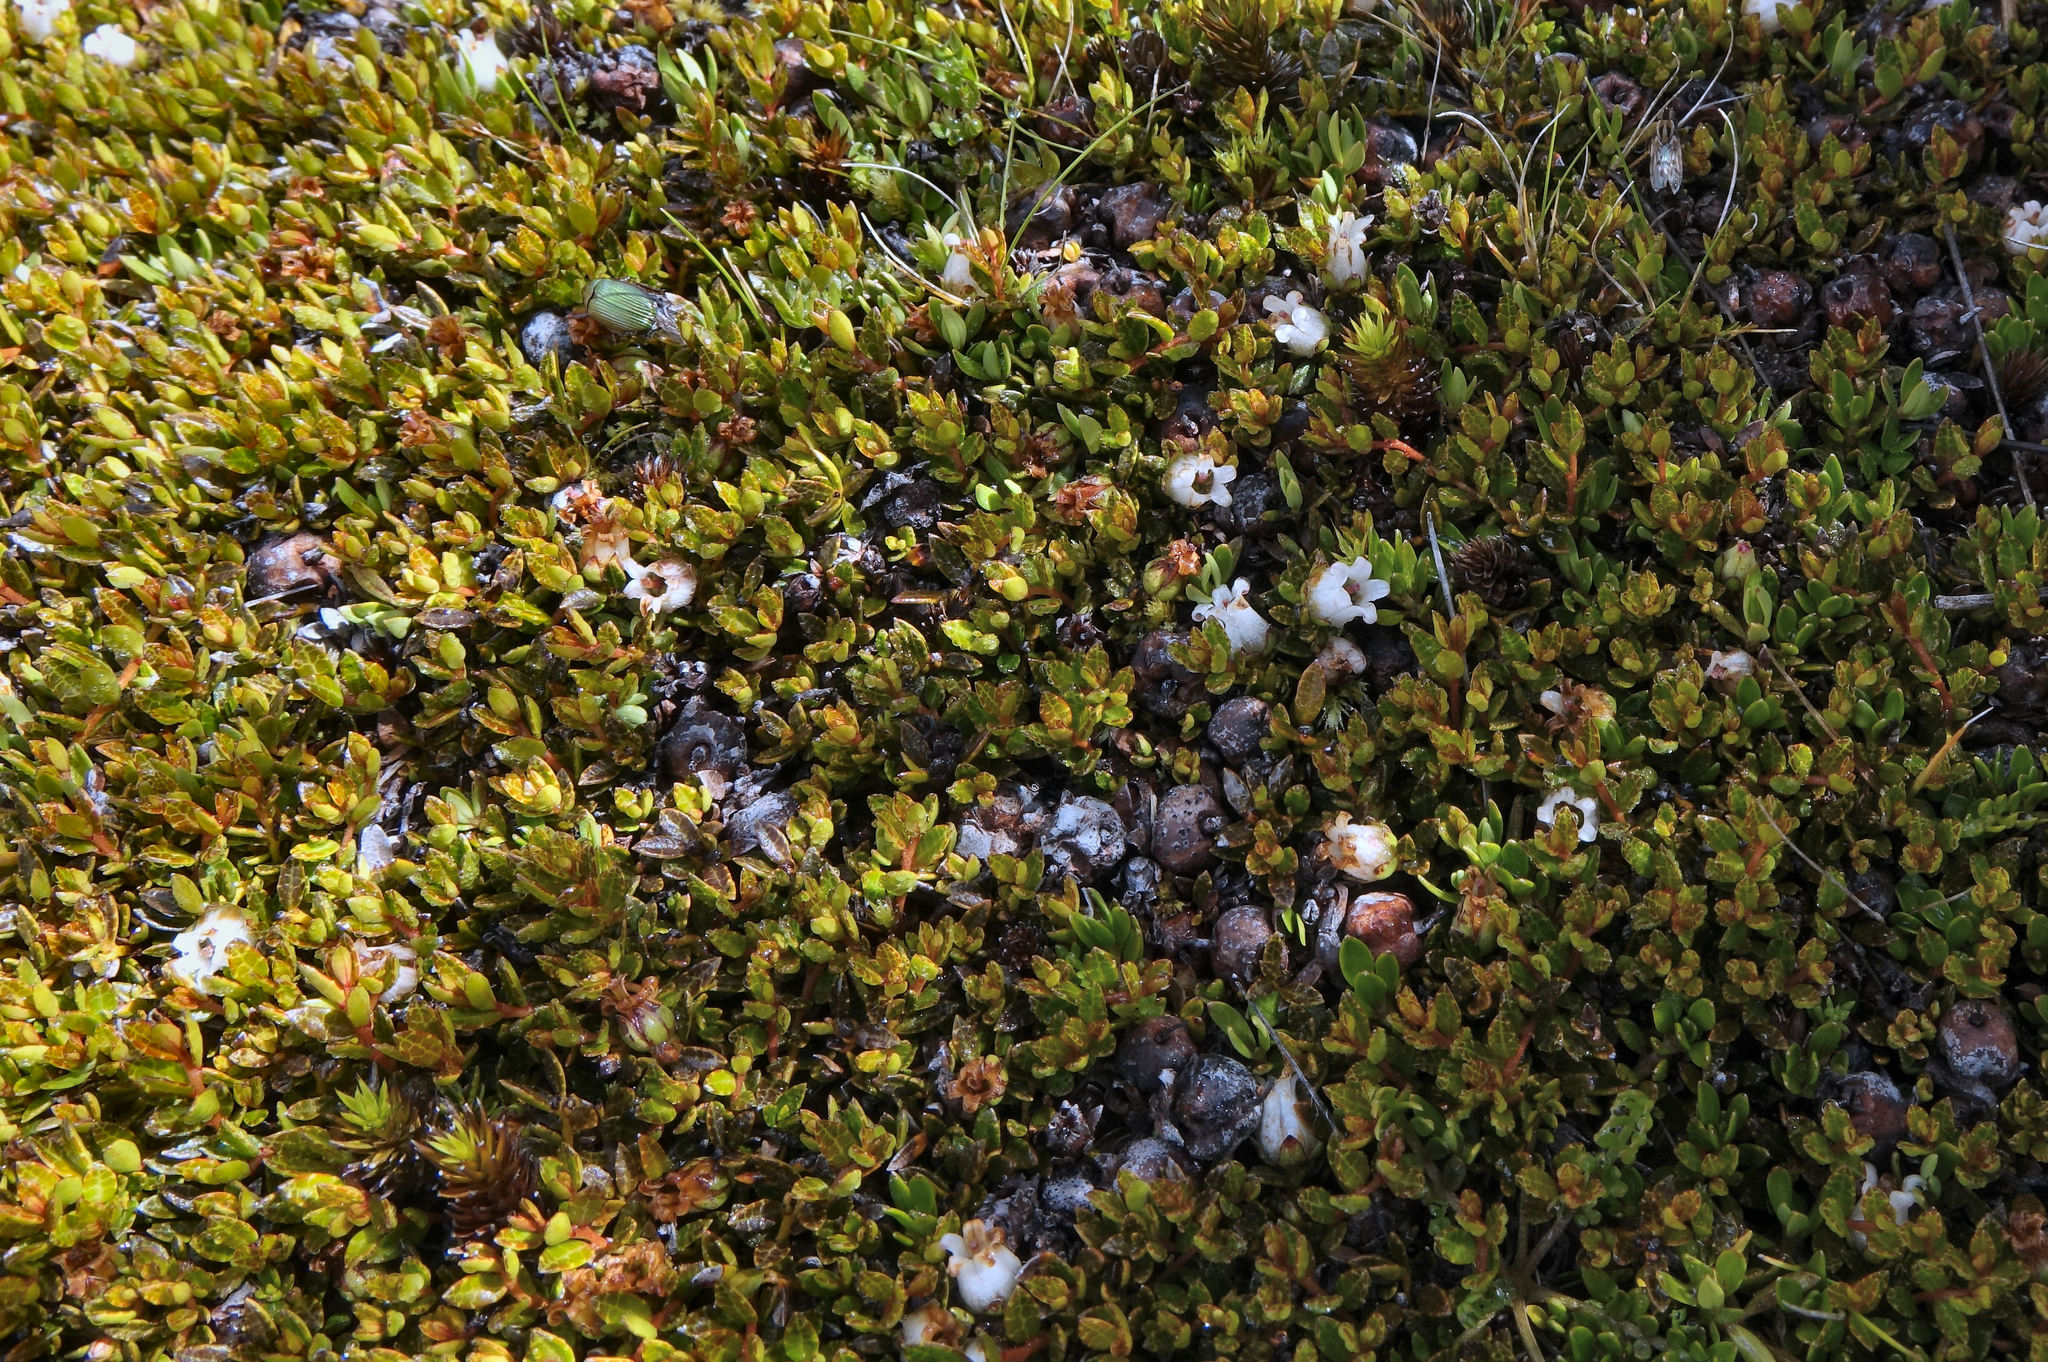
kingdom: Plantae
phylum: Tracheophyta
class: Magnoliopsida
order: Ericales
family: Ericaceae
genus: Gaultheria
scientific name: Gaultheria parvula
